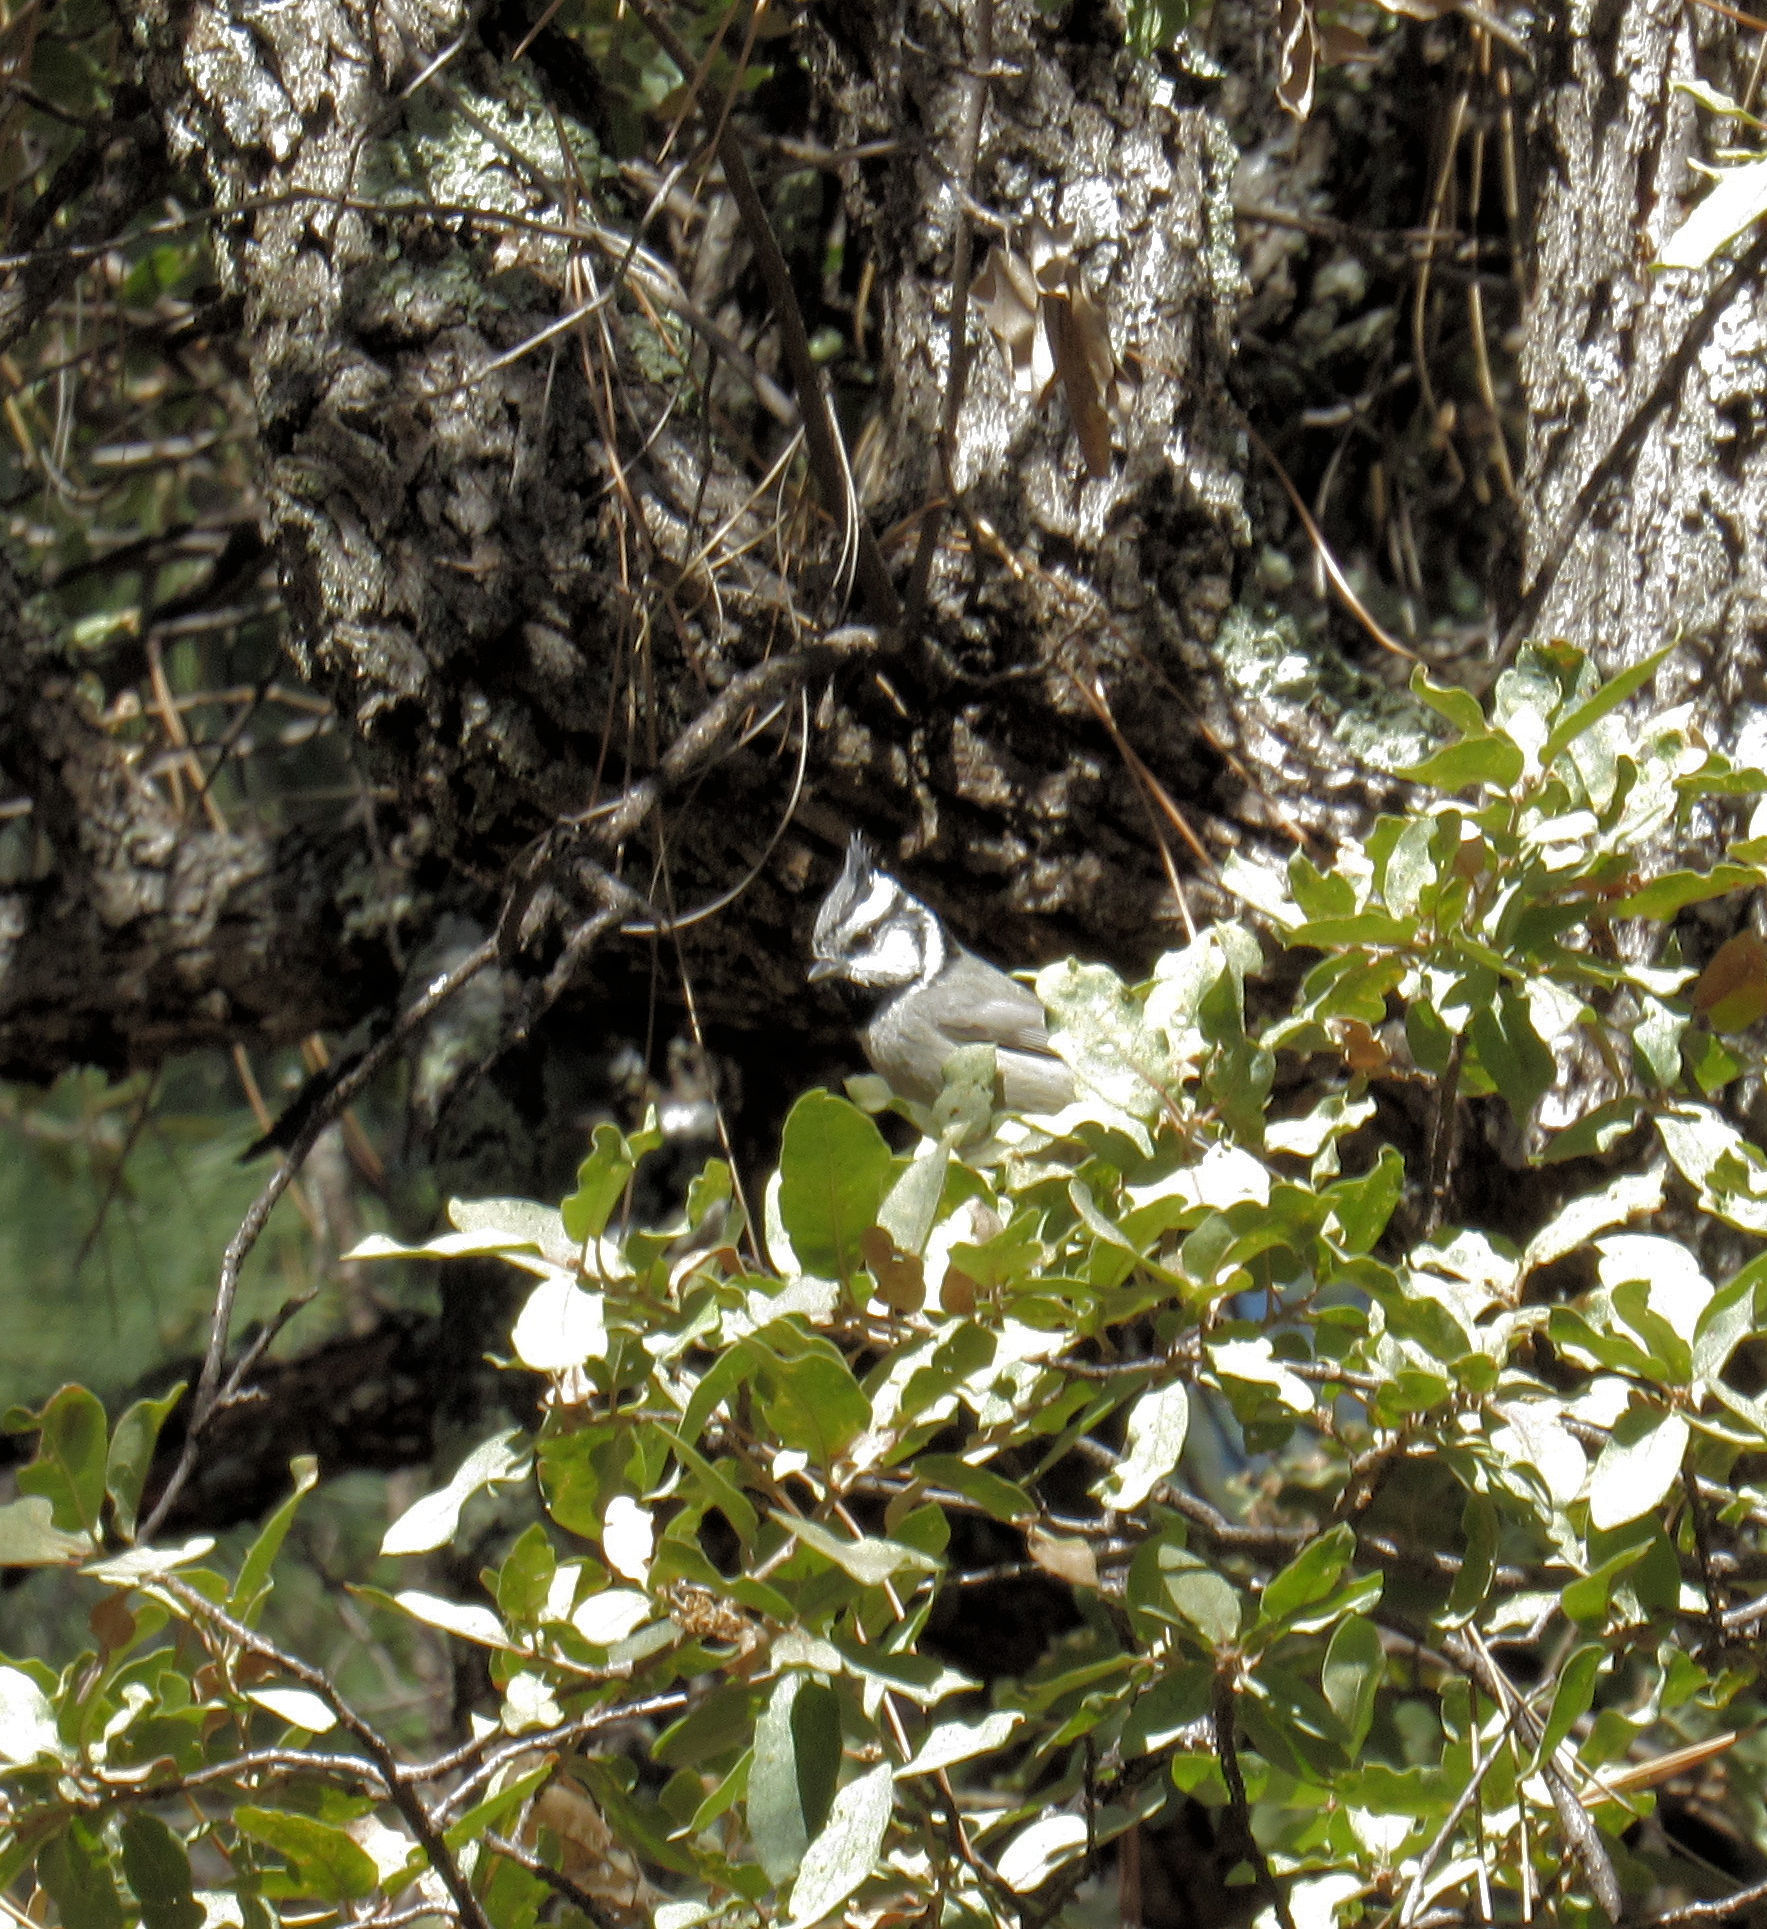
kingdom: Animalia
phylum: Chordata
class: Aves
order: Passeriformes
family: Paridae
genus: Baeolophus
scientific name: Baeolophus wollweberi
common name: Bridled titmouse
